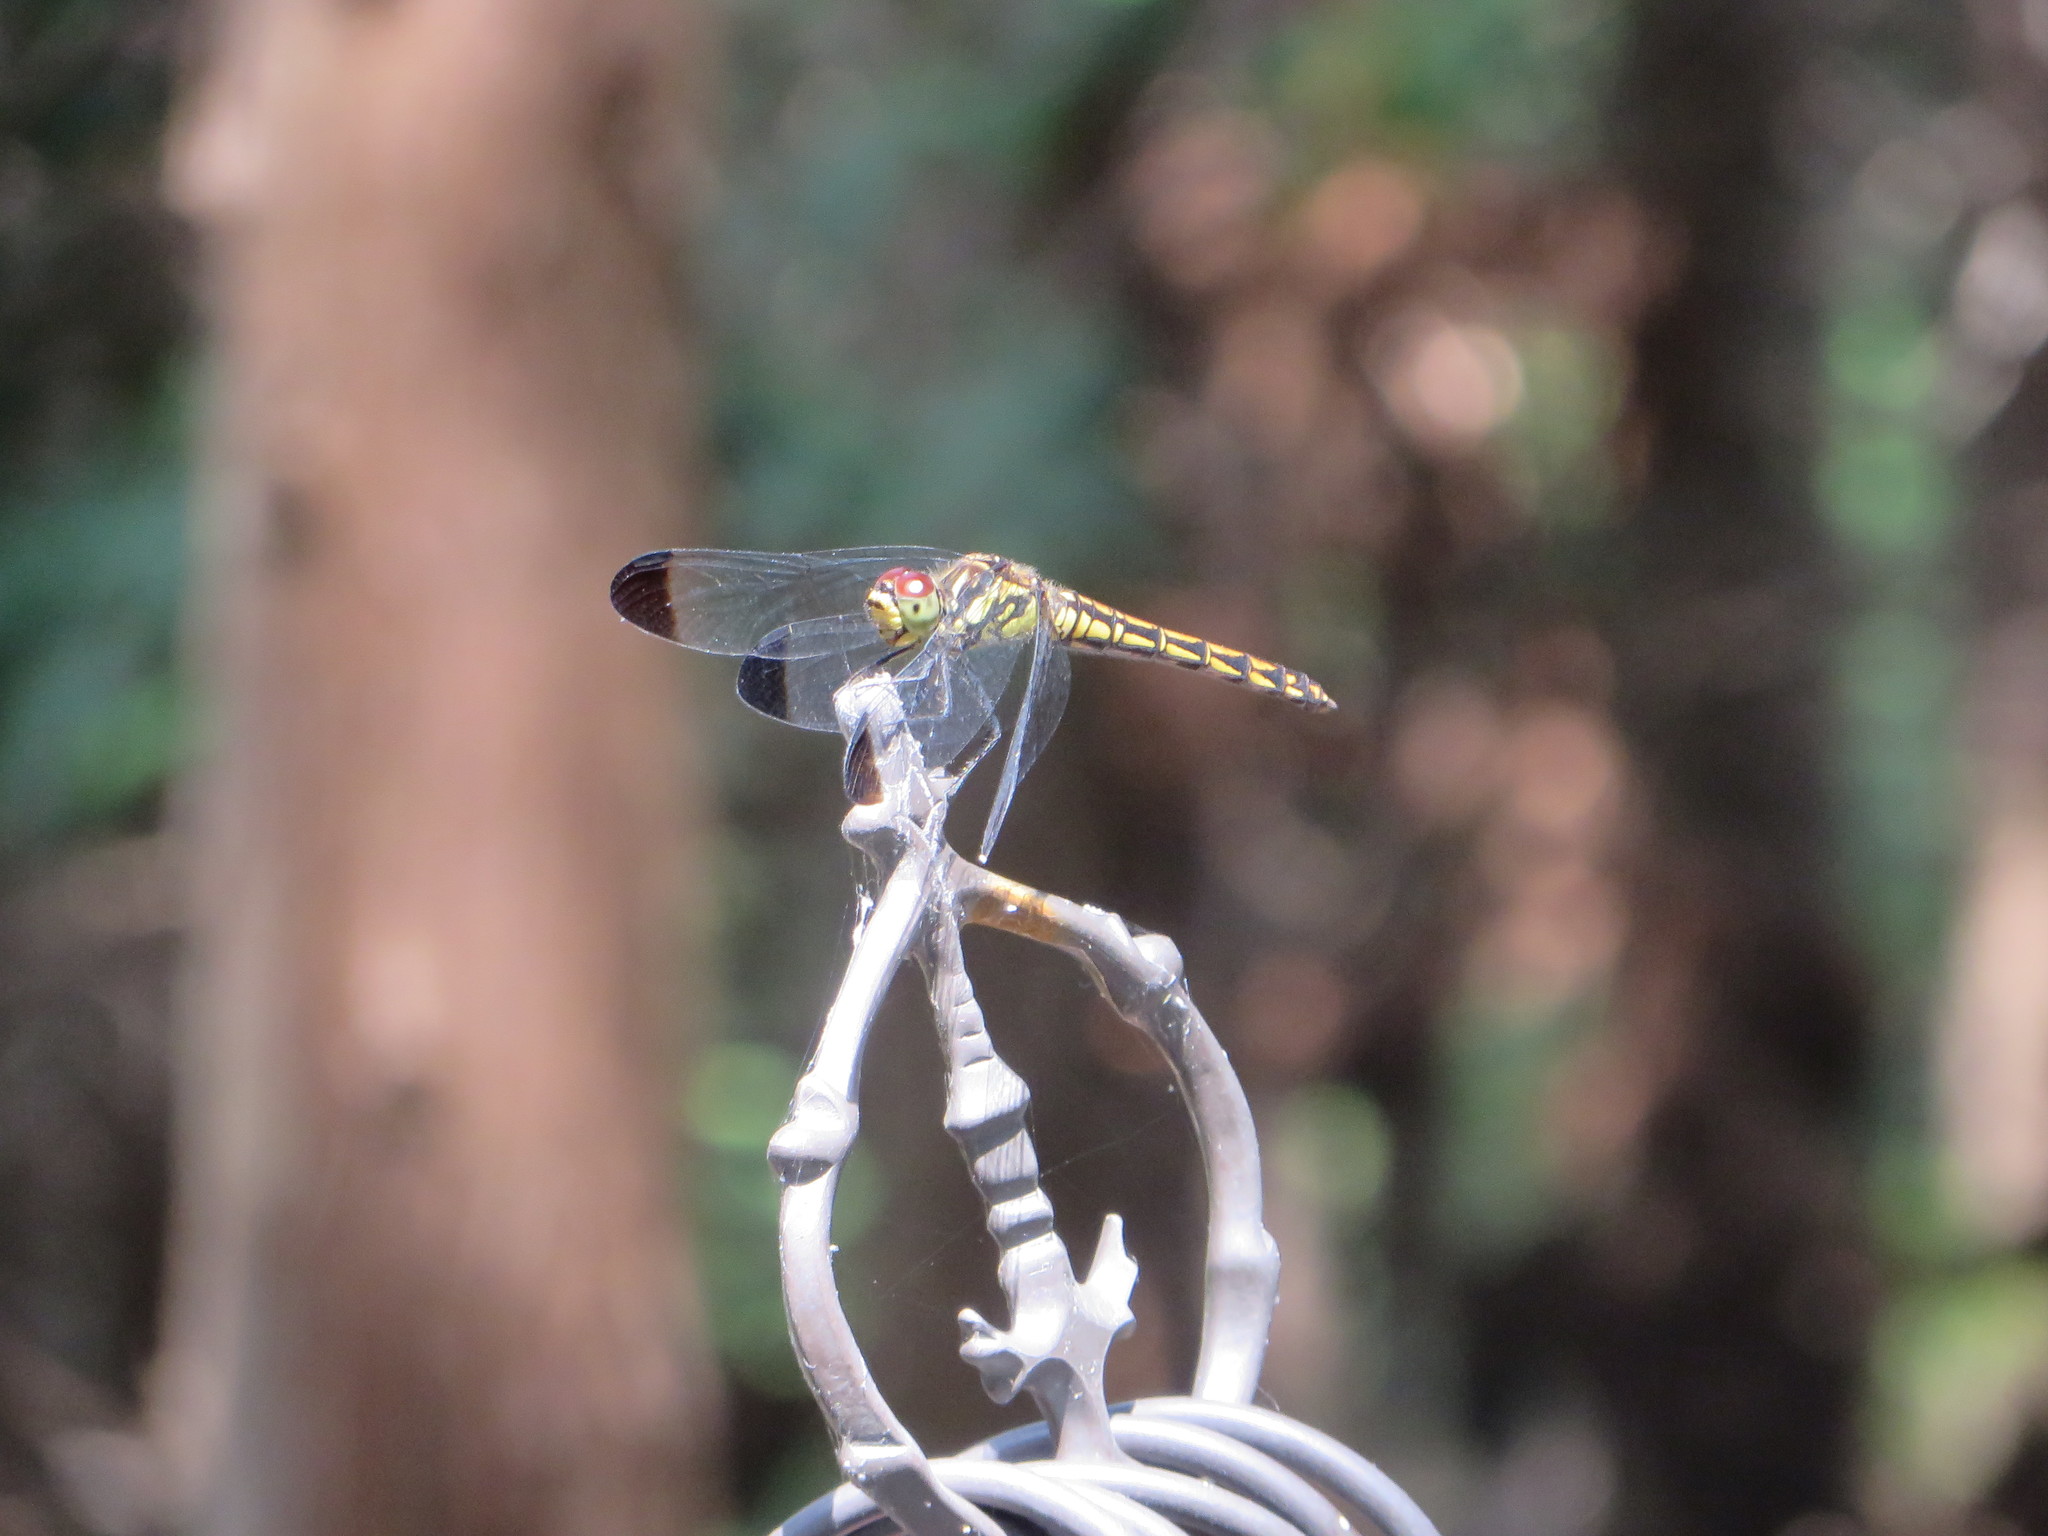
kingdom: Animalia
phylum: Arthropoda
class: Insecta
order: Odonata
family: Libellulidae
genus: Sympetrum
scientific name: Sympetrum baccha
